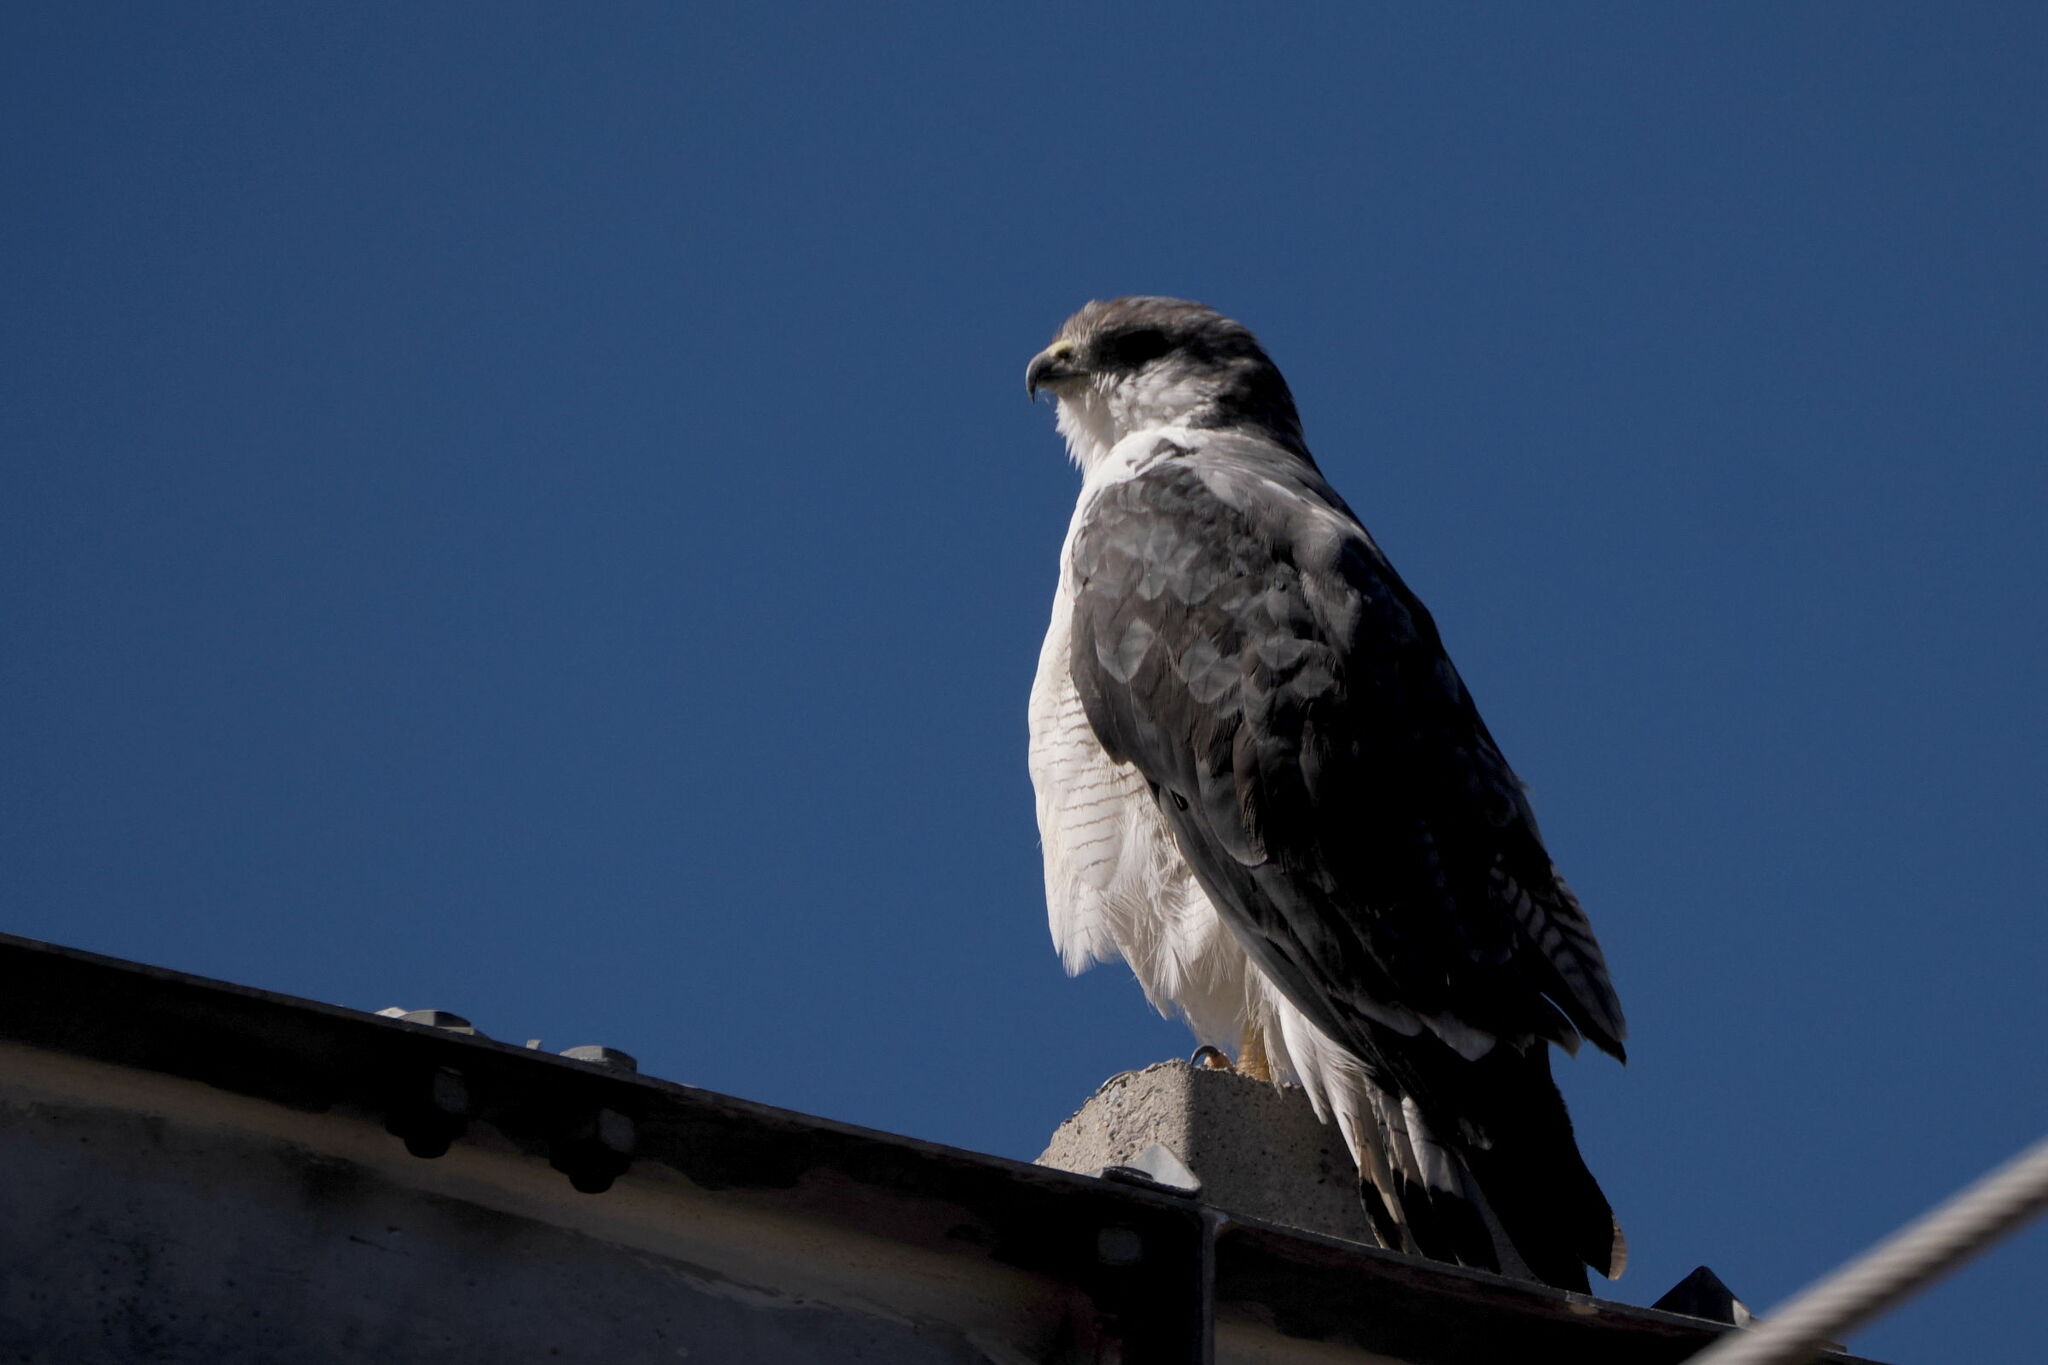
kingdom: Animalia
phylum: Chordata
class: Aves
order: Accipitriformes
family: Accipitridae
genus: Buteo
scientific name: Buteo polyosoma
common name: Variable hawk
